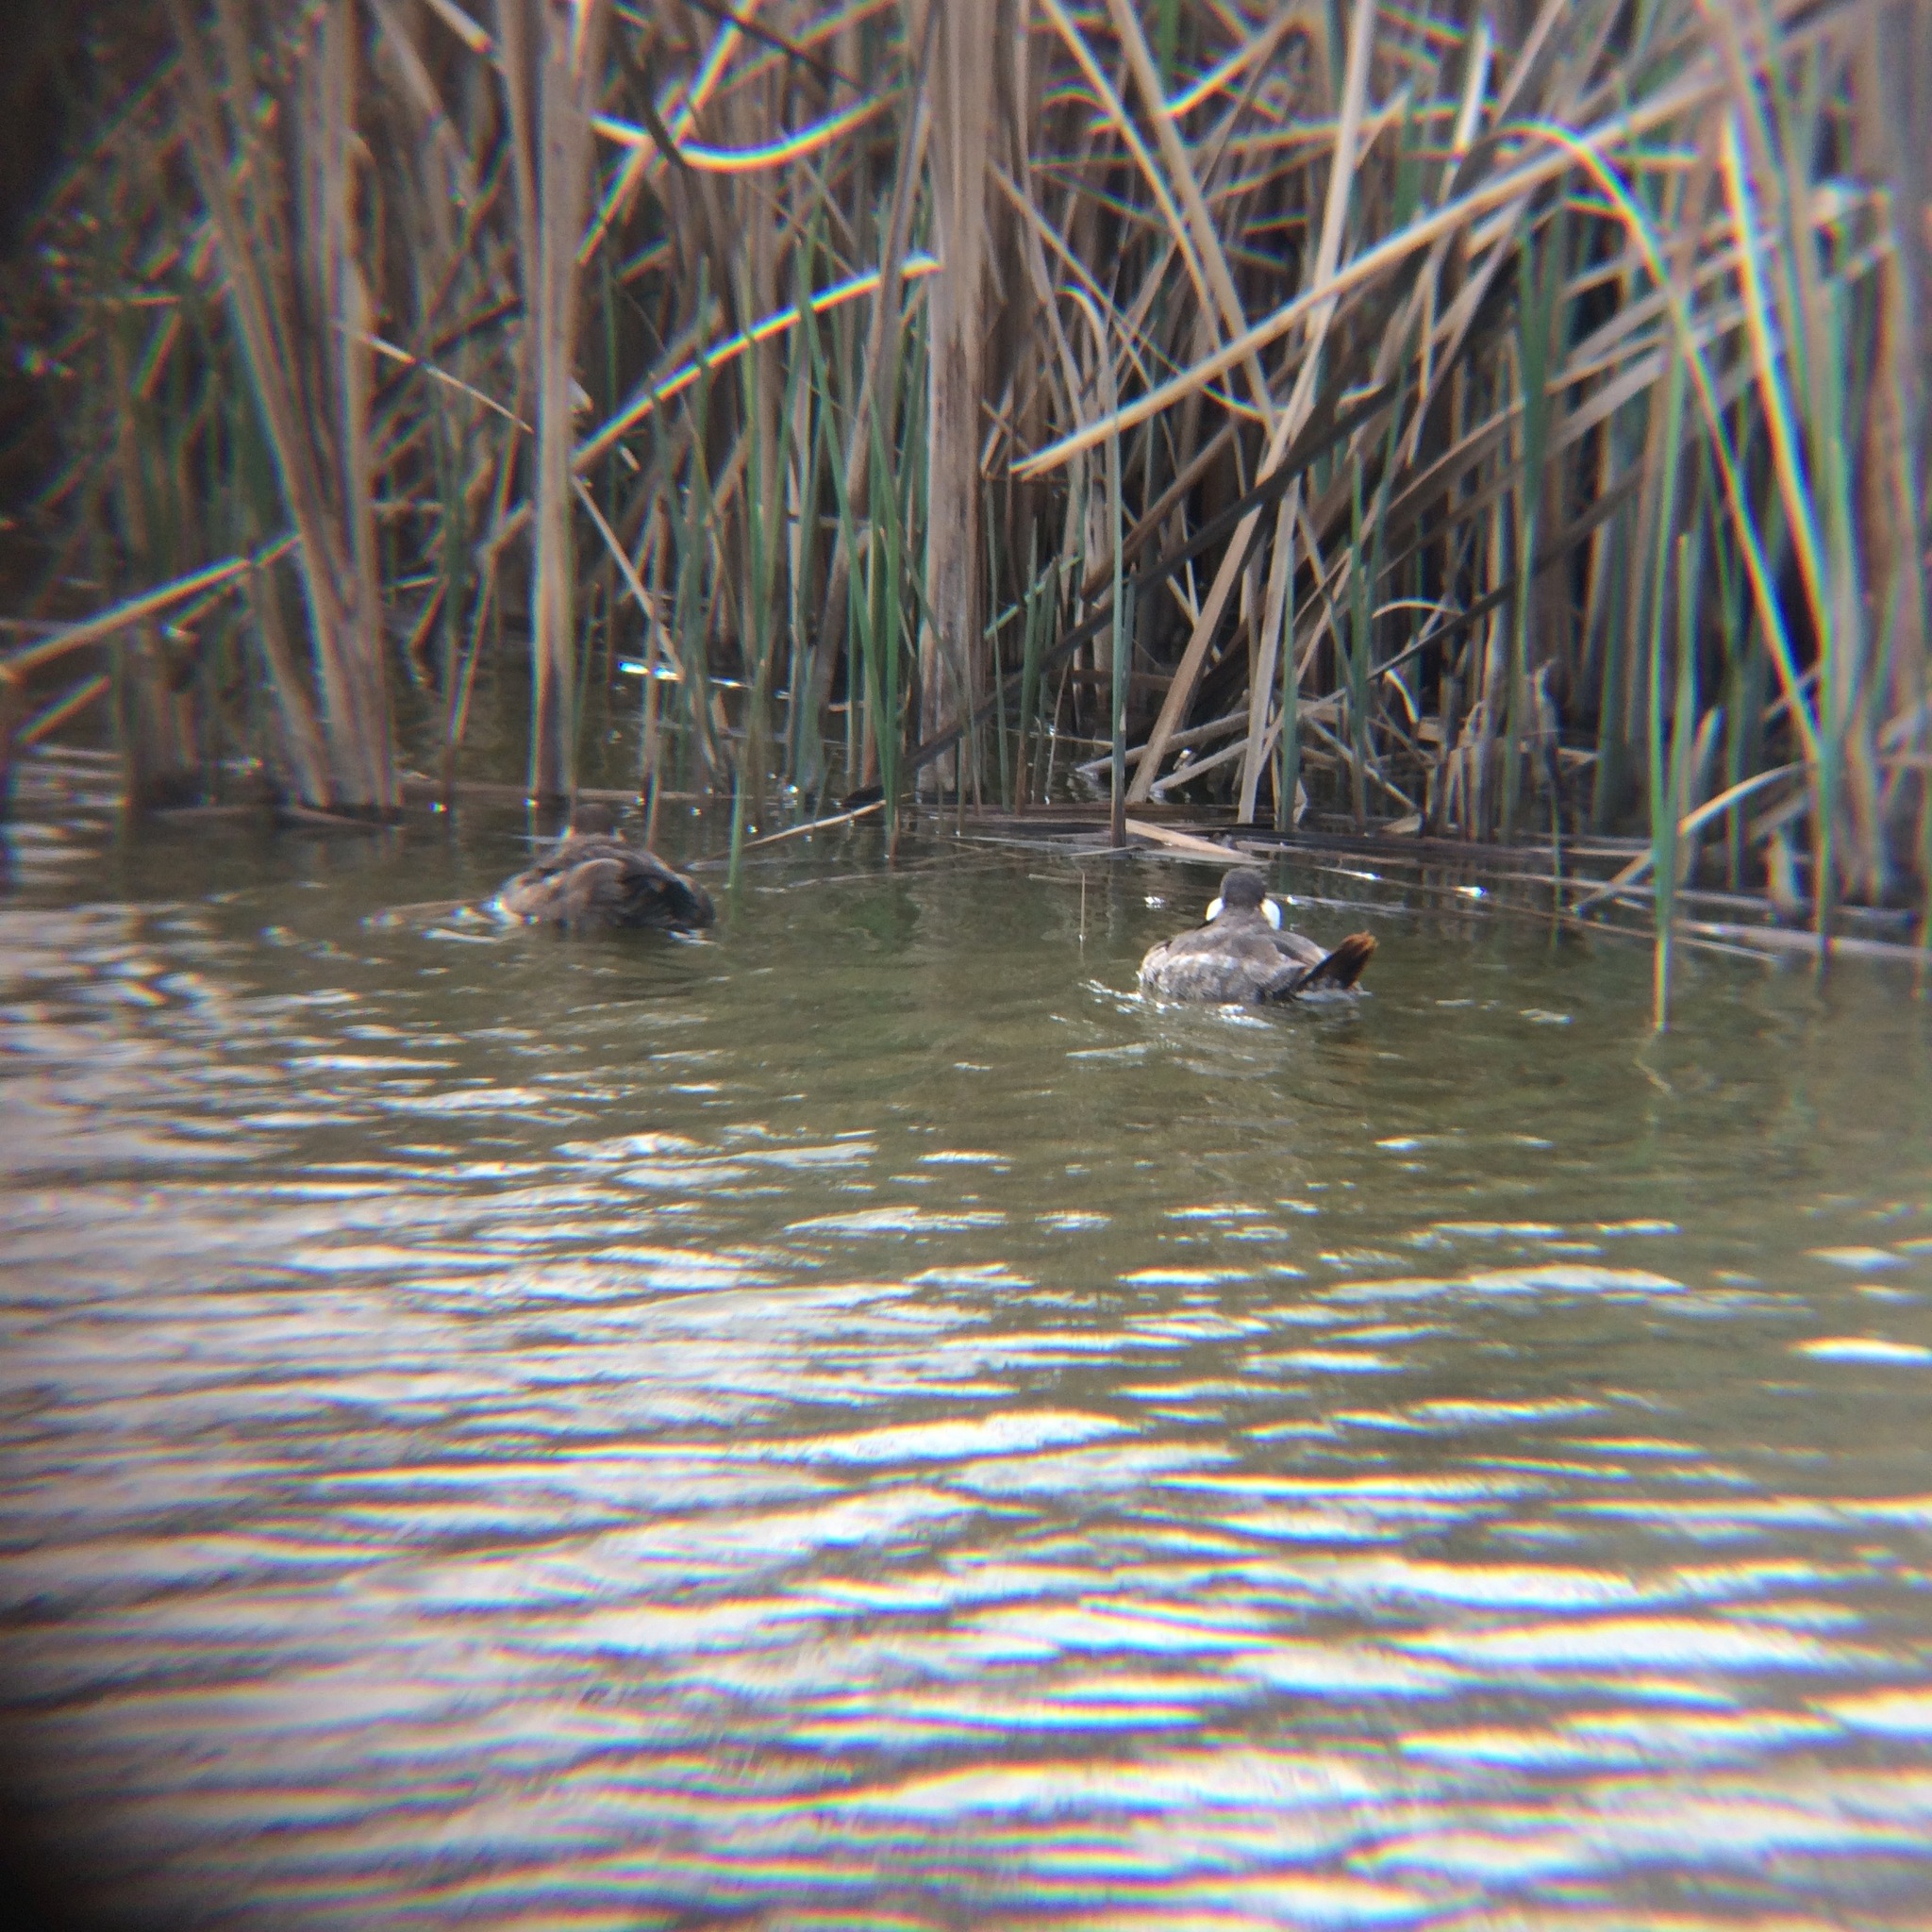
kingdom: Animalia
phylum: Chordata
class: Aves
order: Anseriformes
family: Anatidae
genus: Oxyura
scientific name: Oxyura jamaicensis
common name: Ruddy duck
